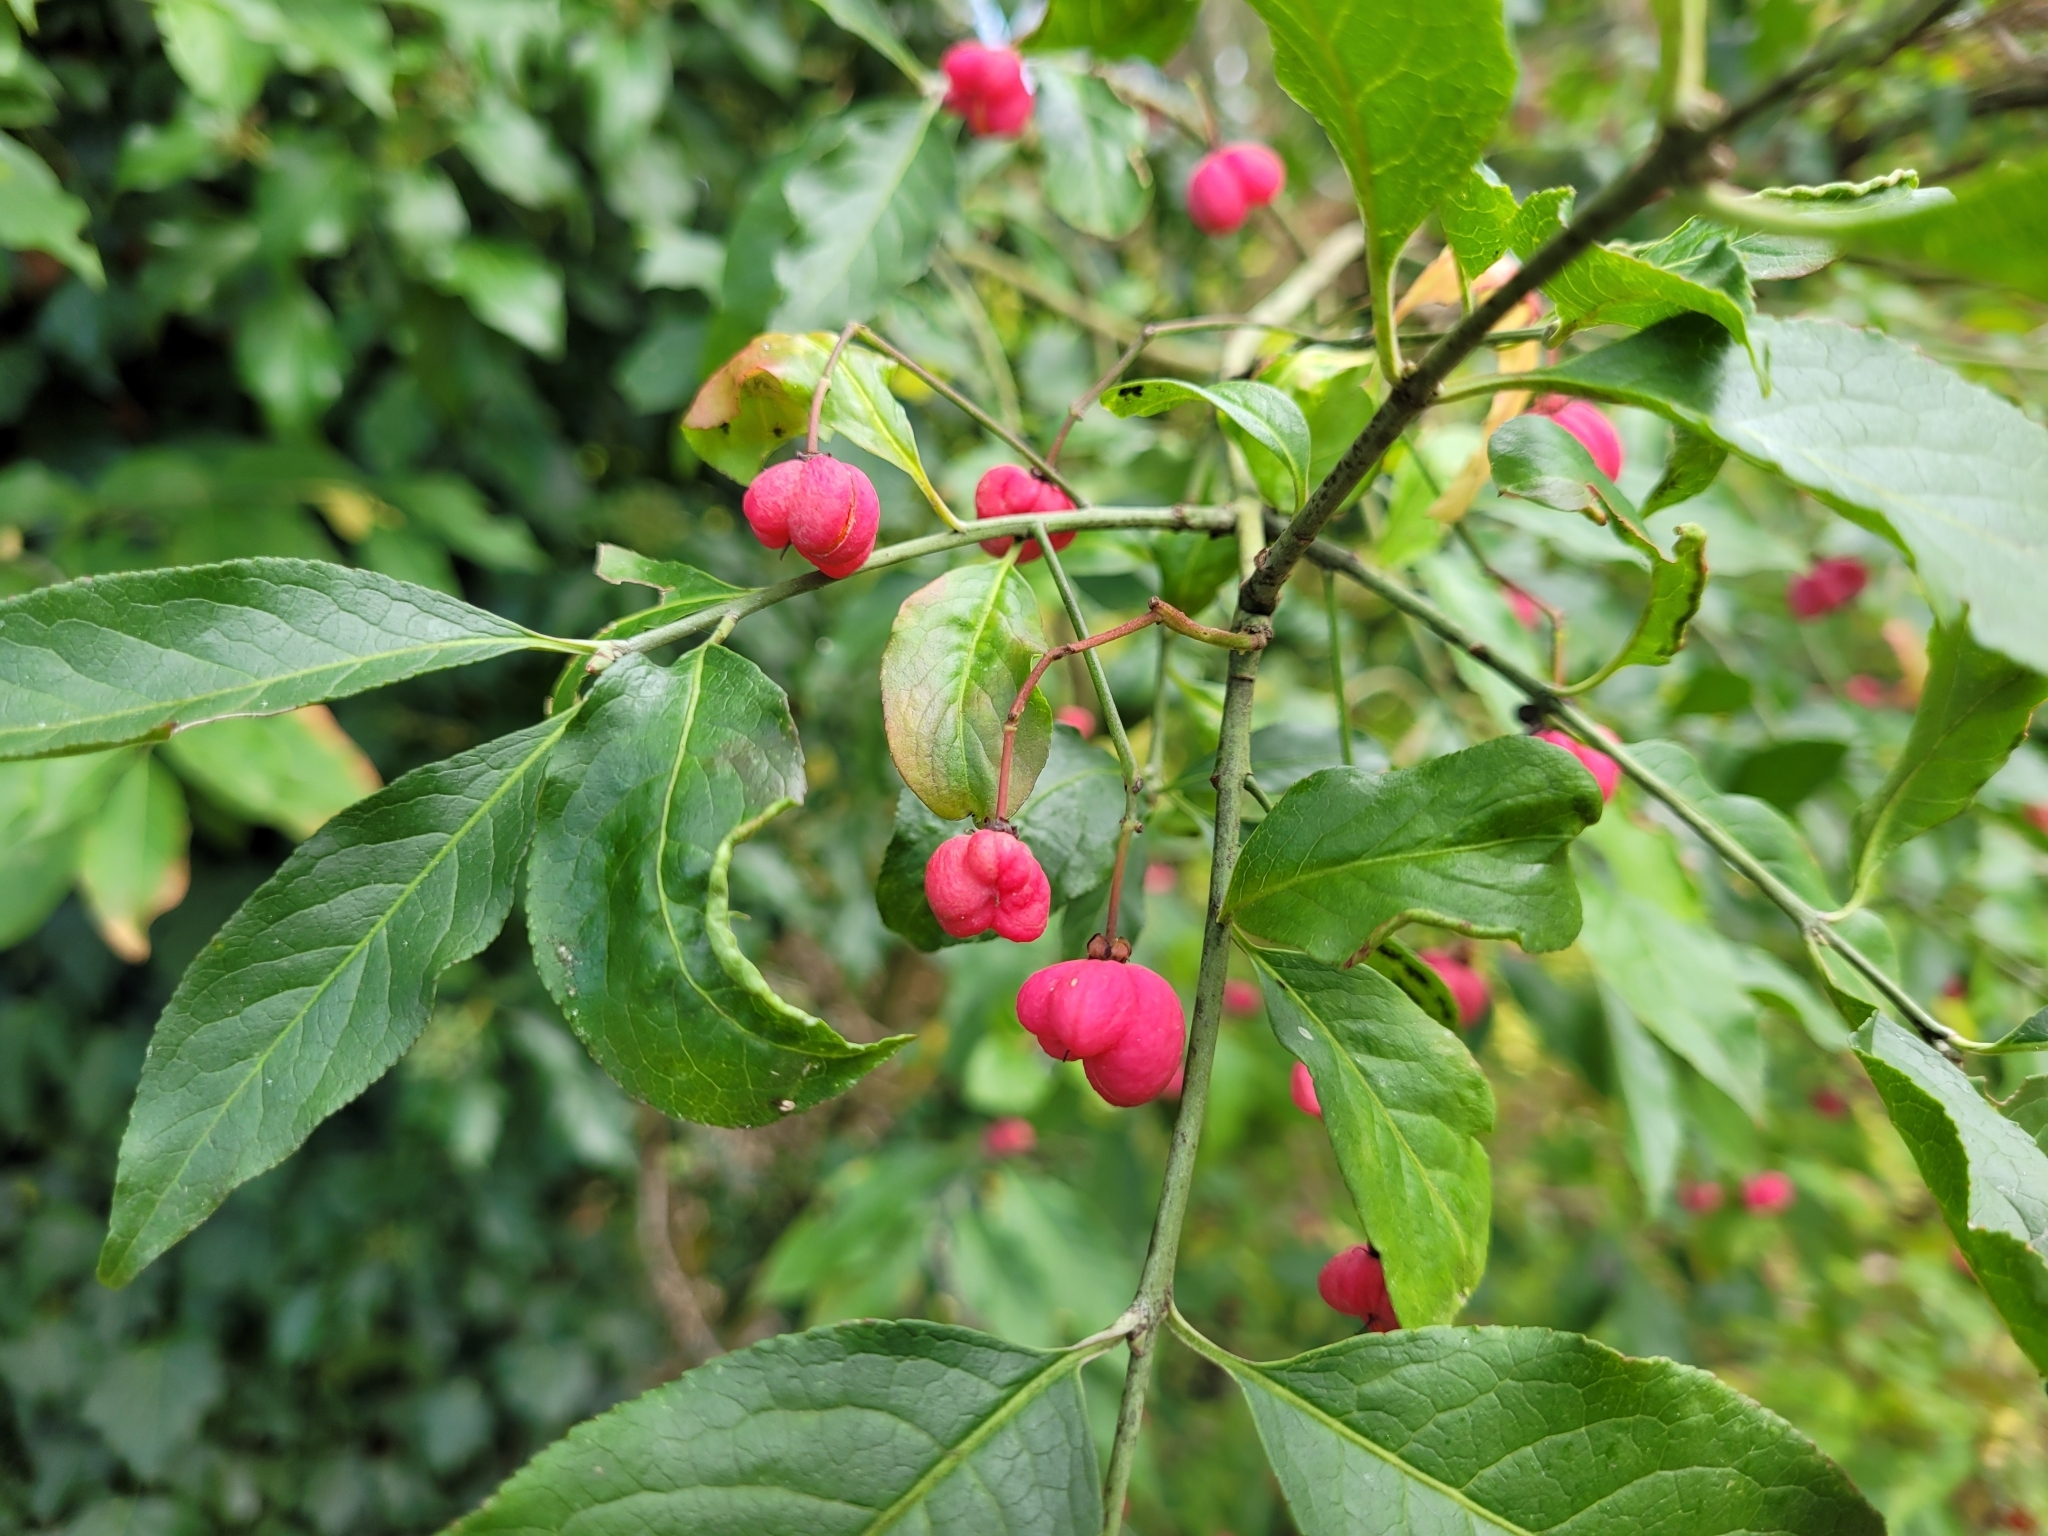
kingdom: Plantae
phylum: Tracheophyta
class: Magnoliopsida
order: Celastrales
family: Celastraceae
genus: Euonymus
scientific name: Euonymus europaeus
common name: Spindle
